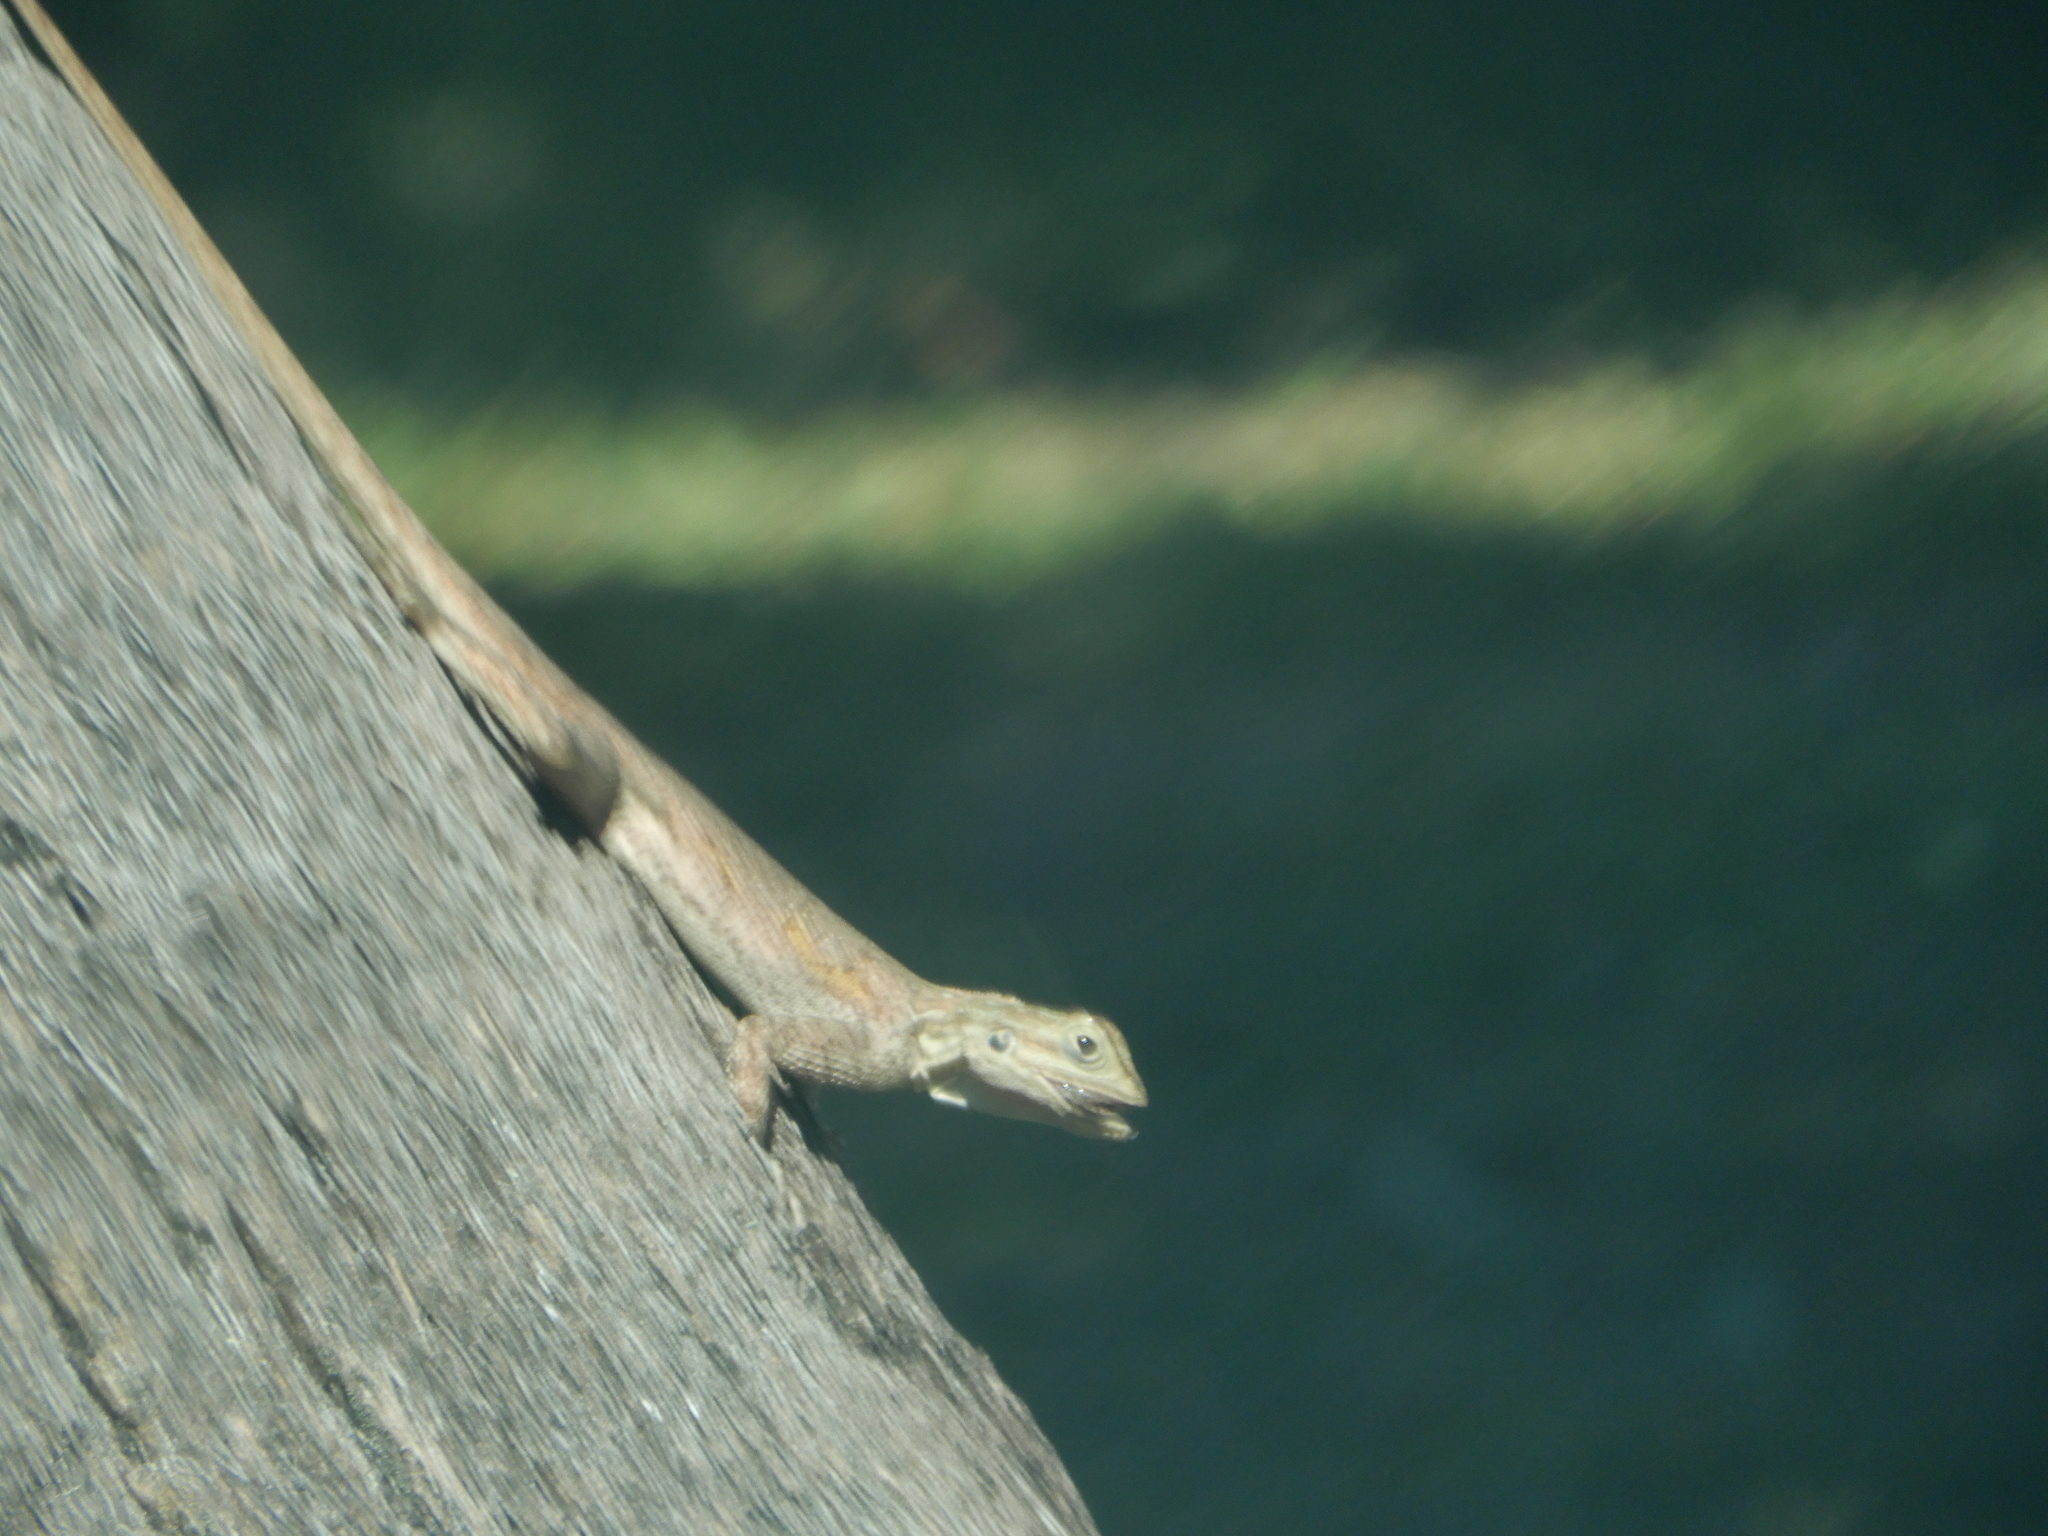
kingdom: Animalia
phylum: Chordata
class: Squamata
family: Agamidae
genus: Agama
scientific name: Agama picticauda
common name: Red-headed agama
